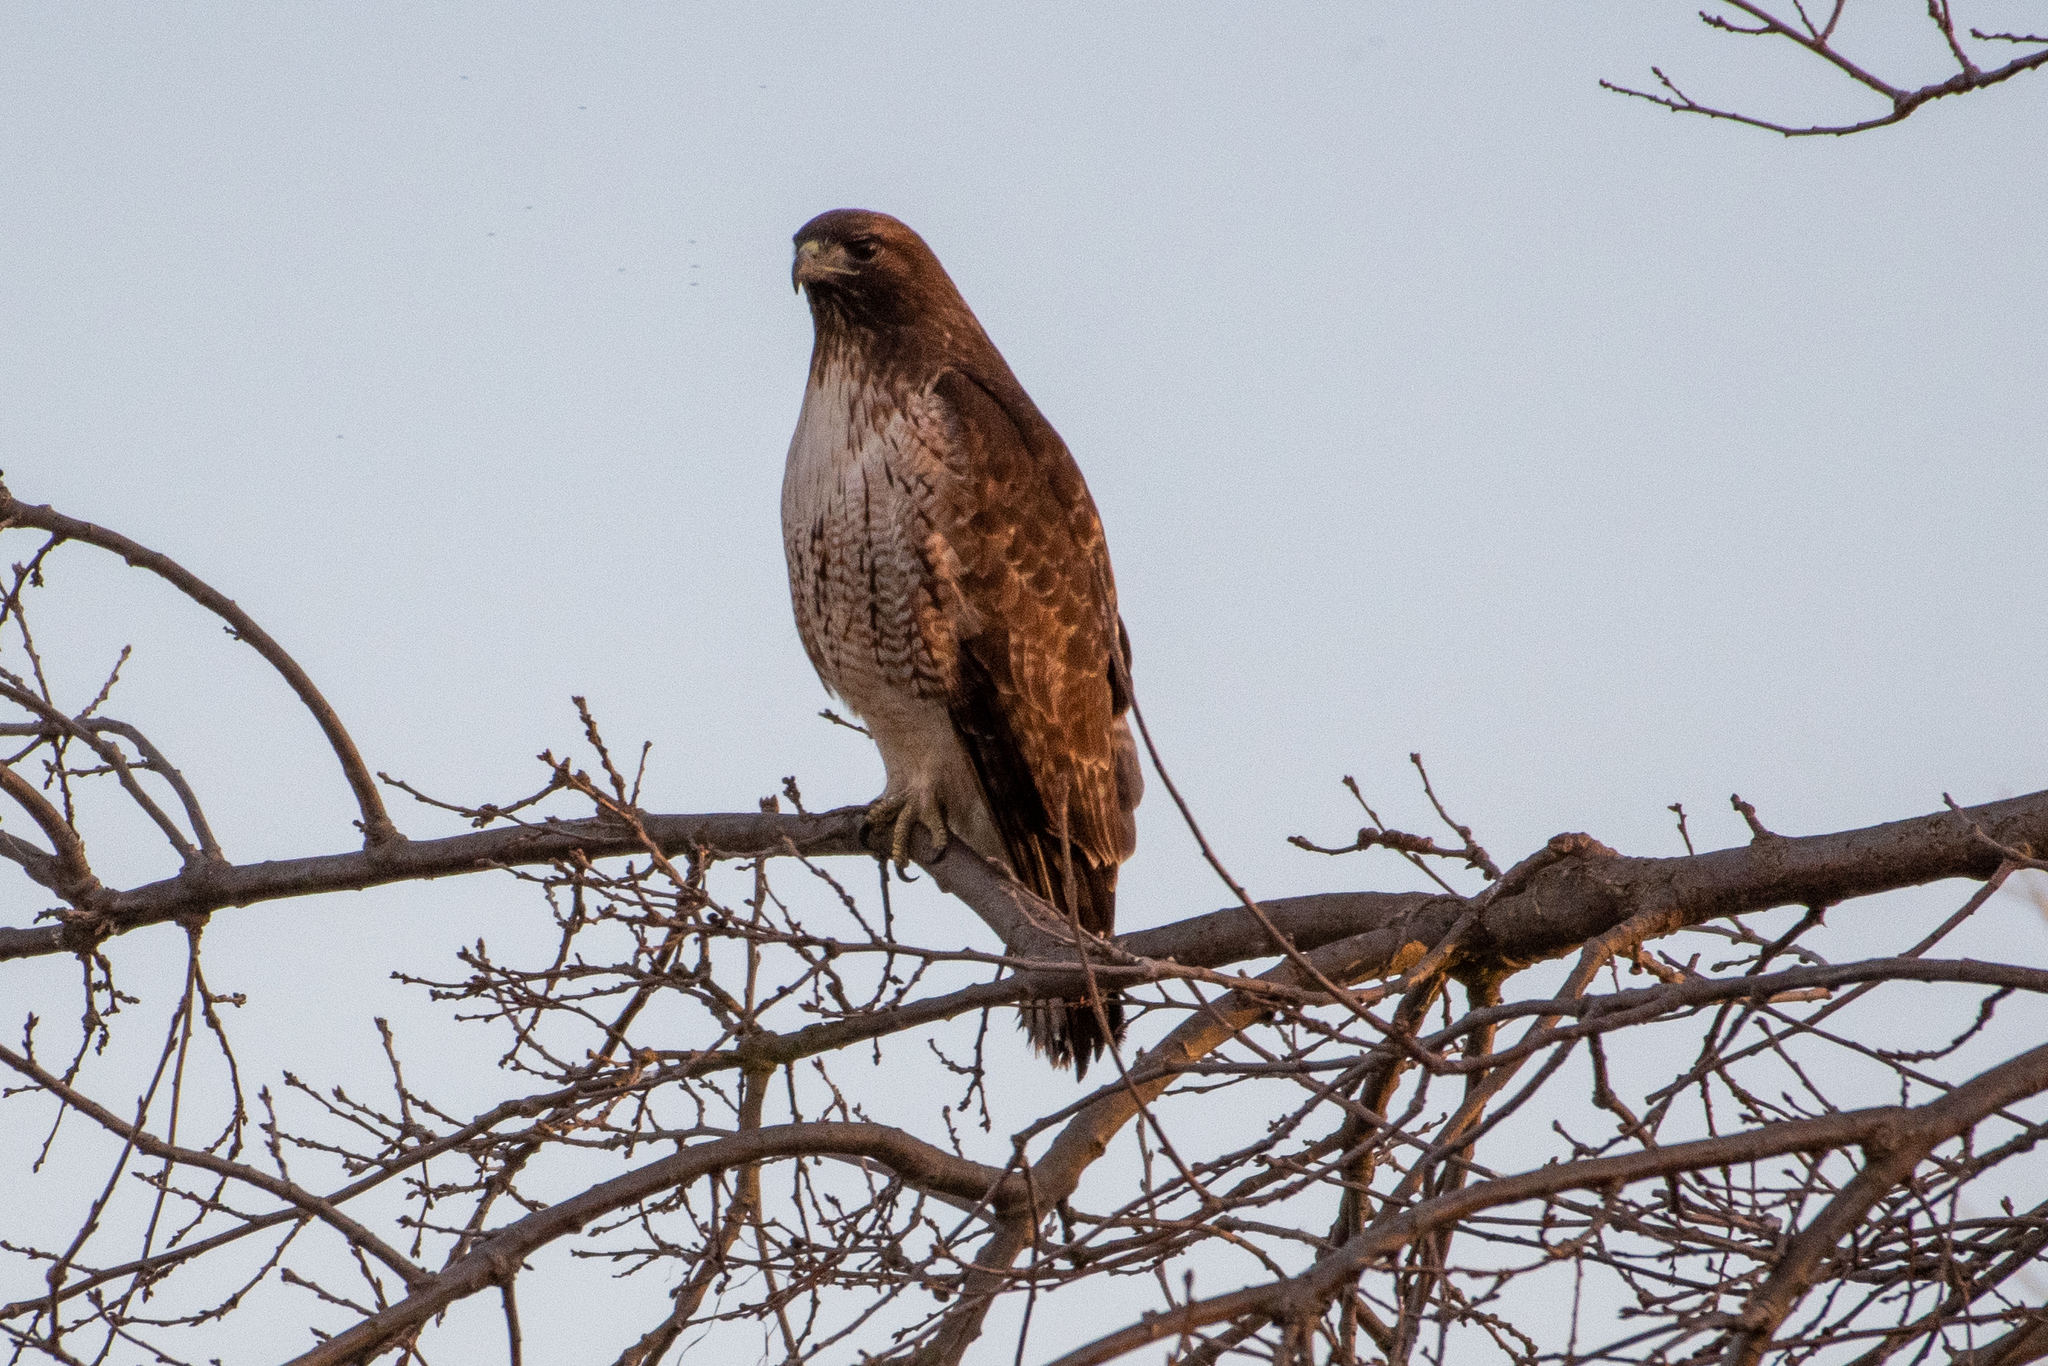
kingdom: Animalia
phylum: Chordata
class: Aves
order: Accipitriformes
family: Accipitridae
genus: Buteo
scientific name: Buteo jamaicensis
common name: Red-tailed hawk
